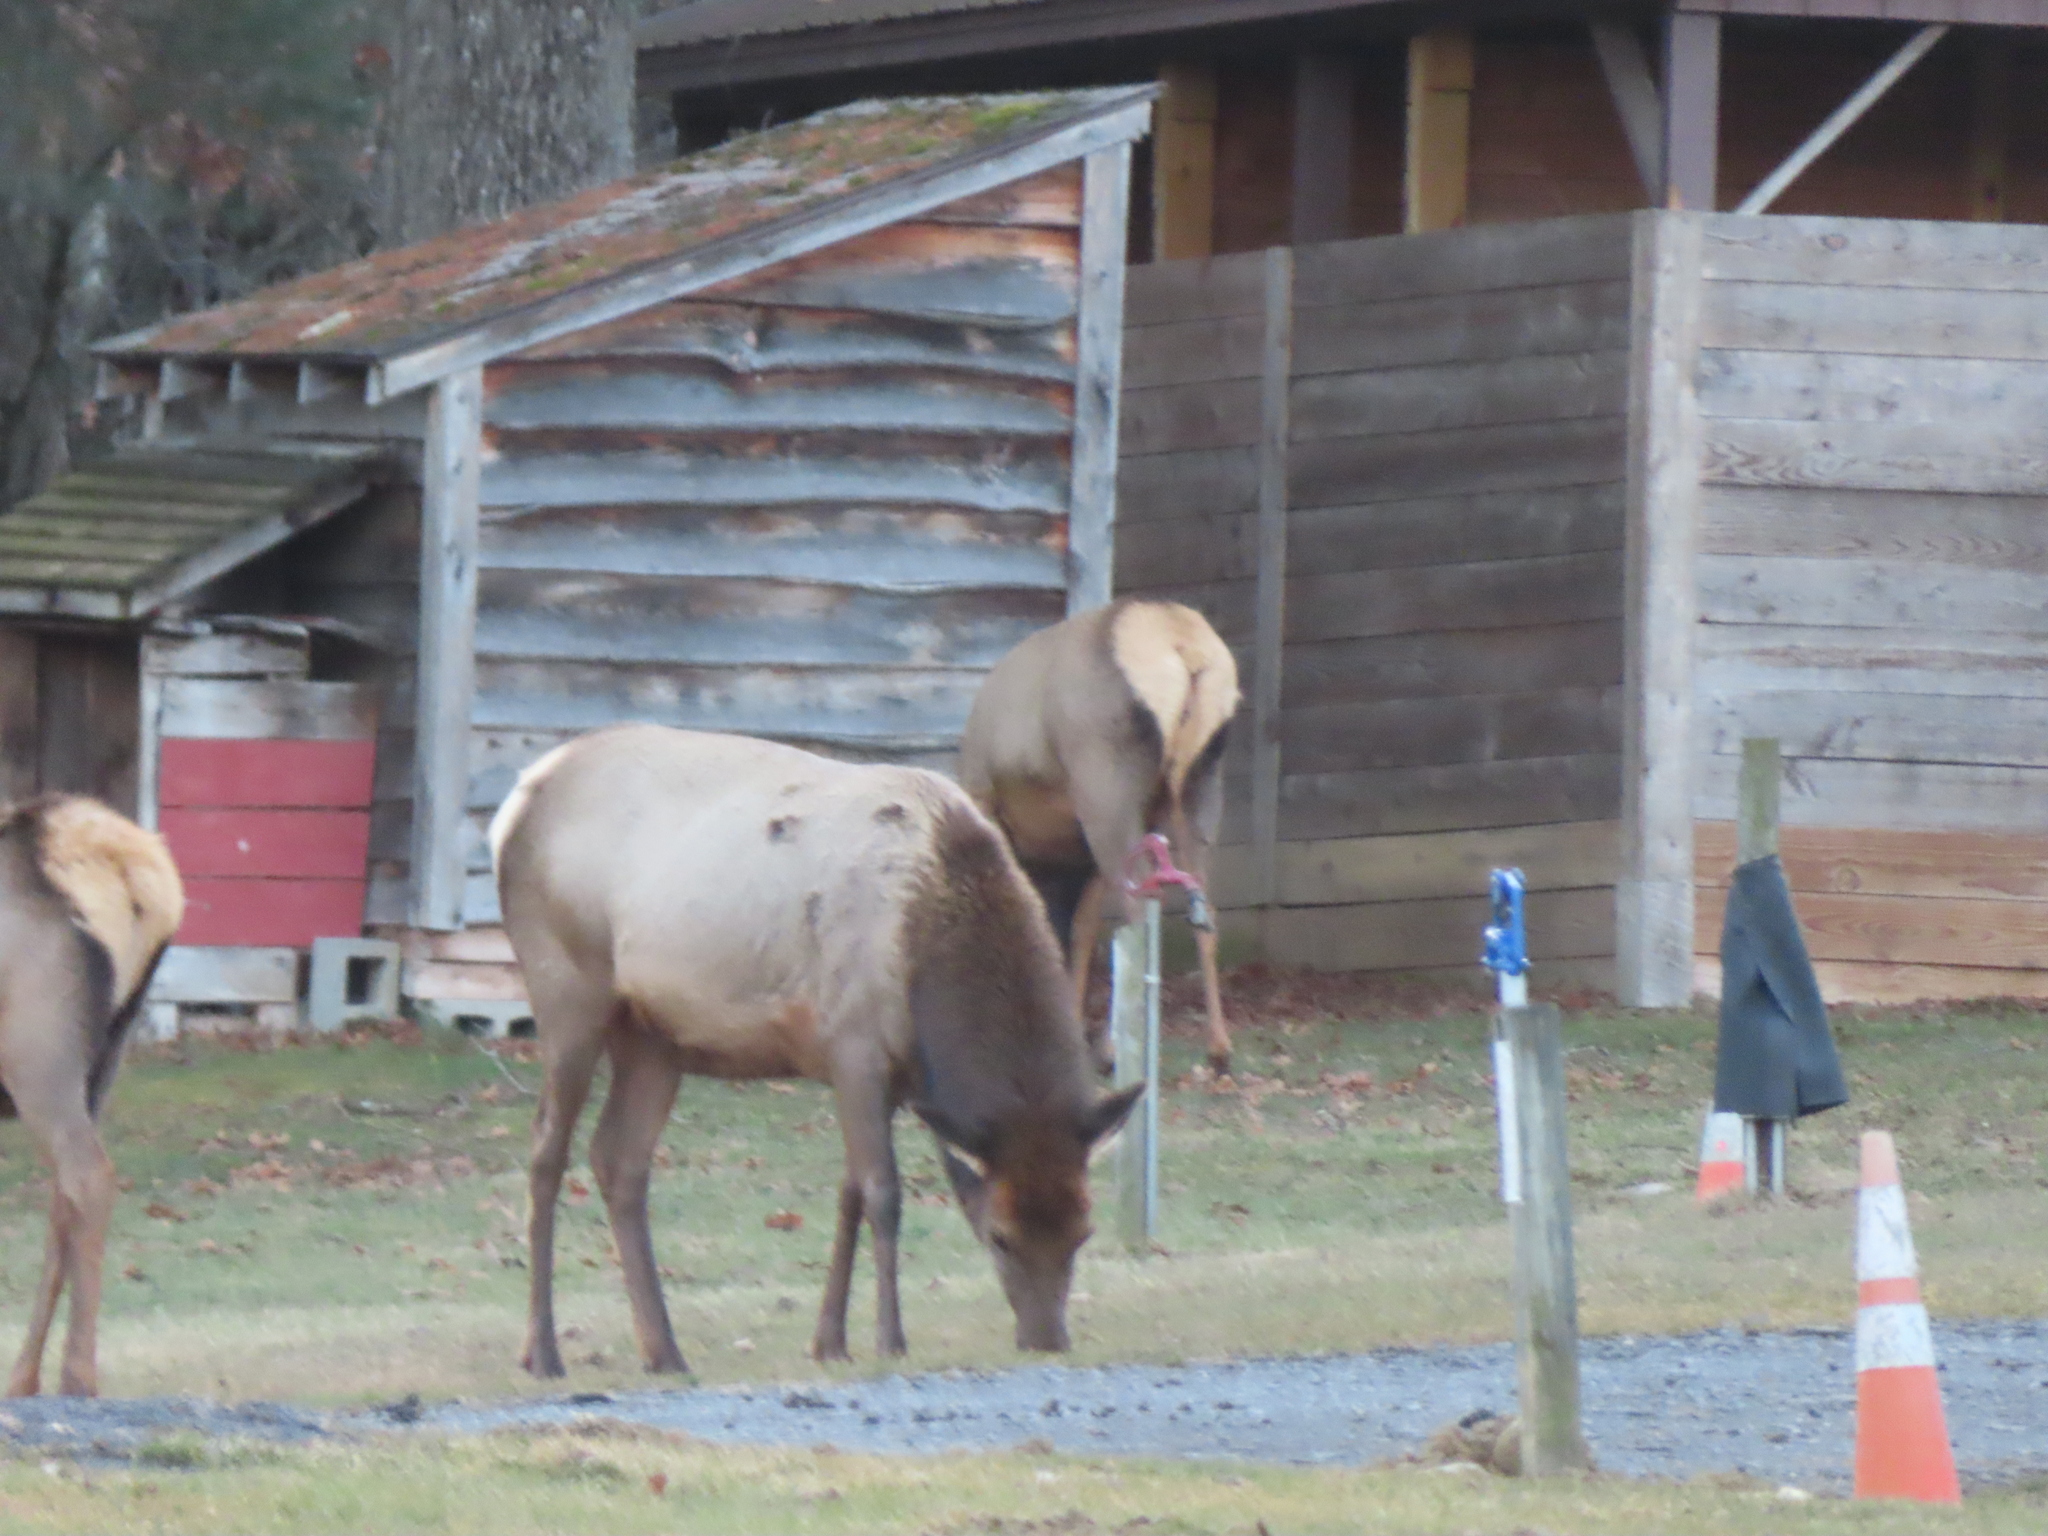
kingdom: Animalia
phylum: Chordata
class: Mammalia
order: Artiodactyla
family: Cervidae
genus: Cervus
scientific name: Cervus elaphus
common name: Red deer
